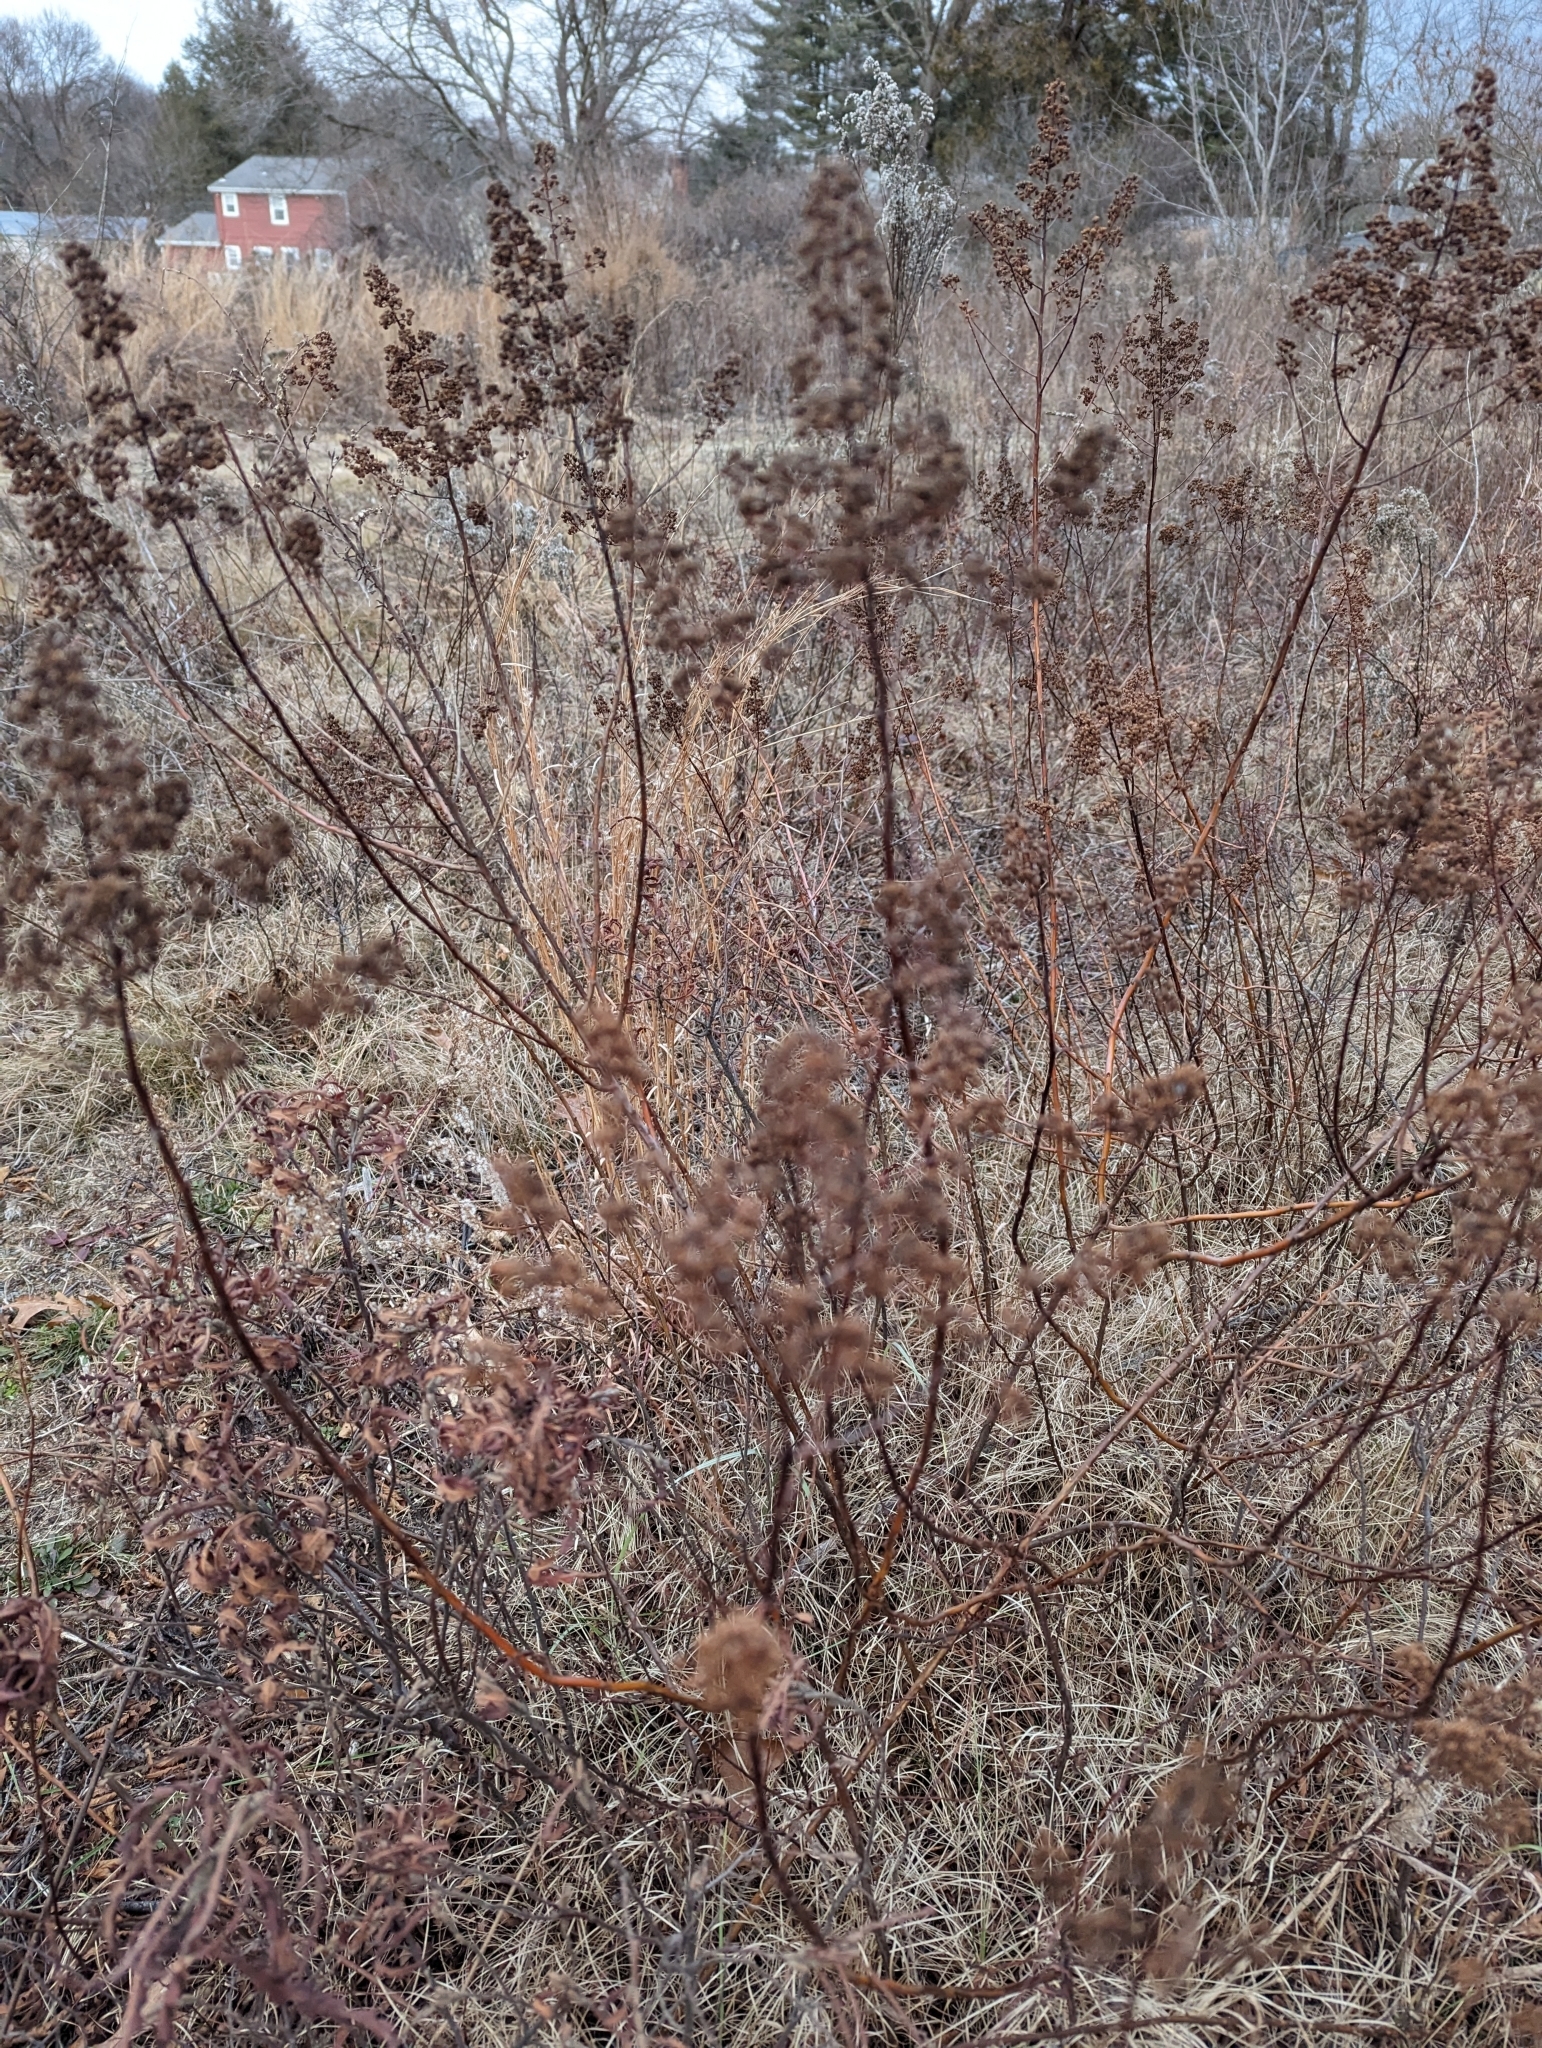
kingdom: Plantae
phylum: Tracheophyta
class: Magnoliopsida
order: Rosales
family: Rosaceae
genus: Spiraea
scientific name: Spiraea alba
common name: Pale bridewort
